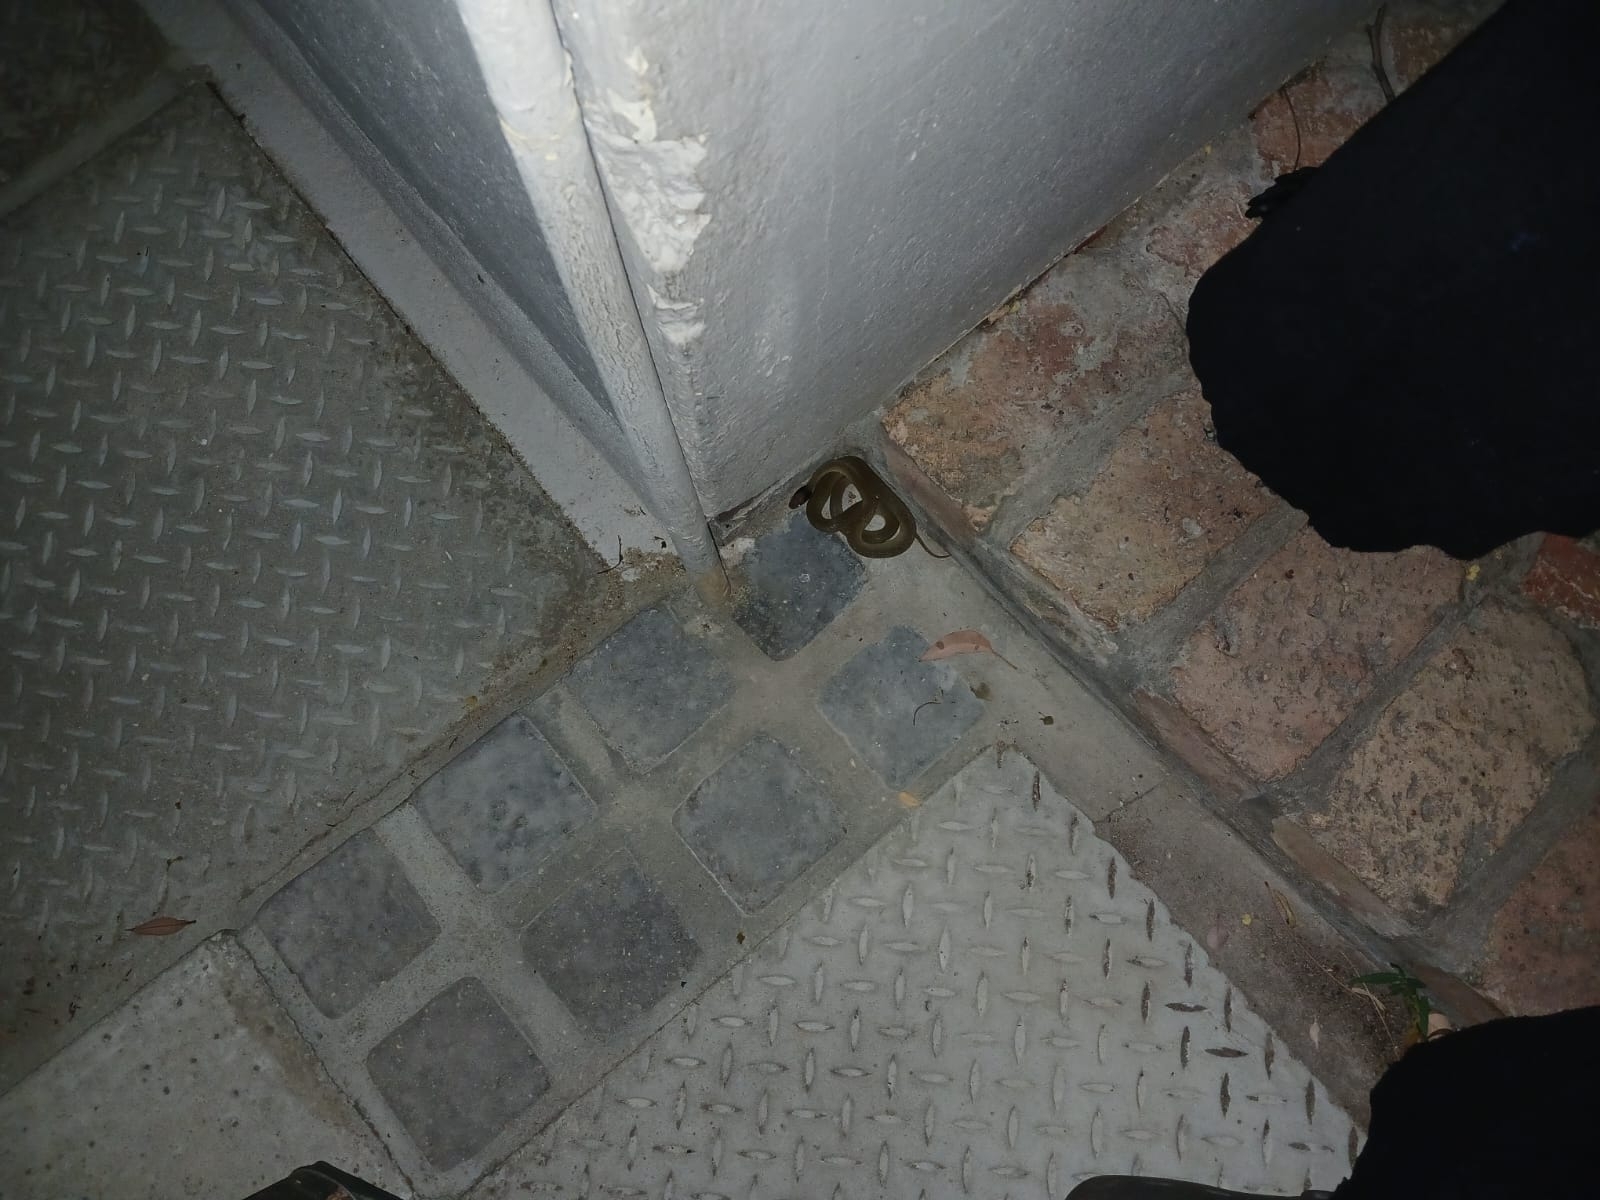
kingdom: Animalia
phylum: Chordata
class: Squamata
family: Colubridae
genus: Crotaphopeltis
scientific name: Crotaphopeltis hotamboeia
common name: Red-lipped snake
